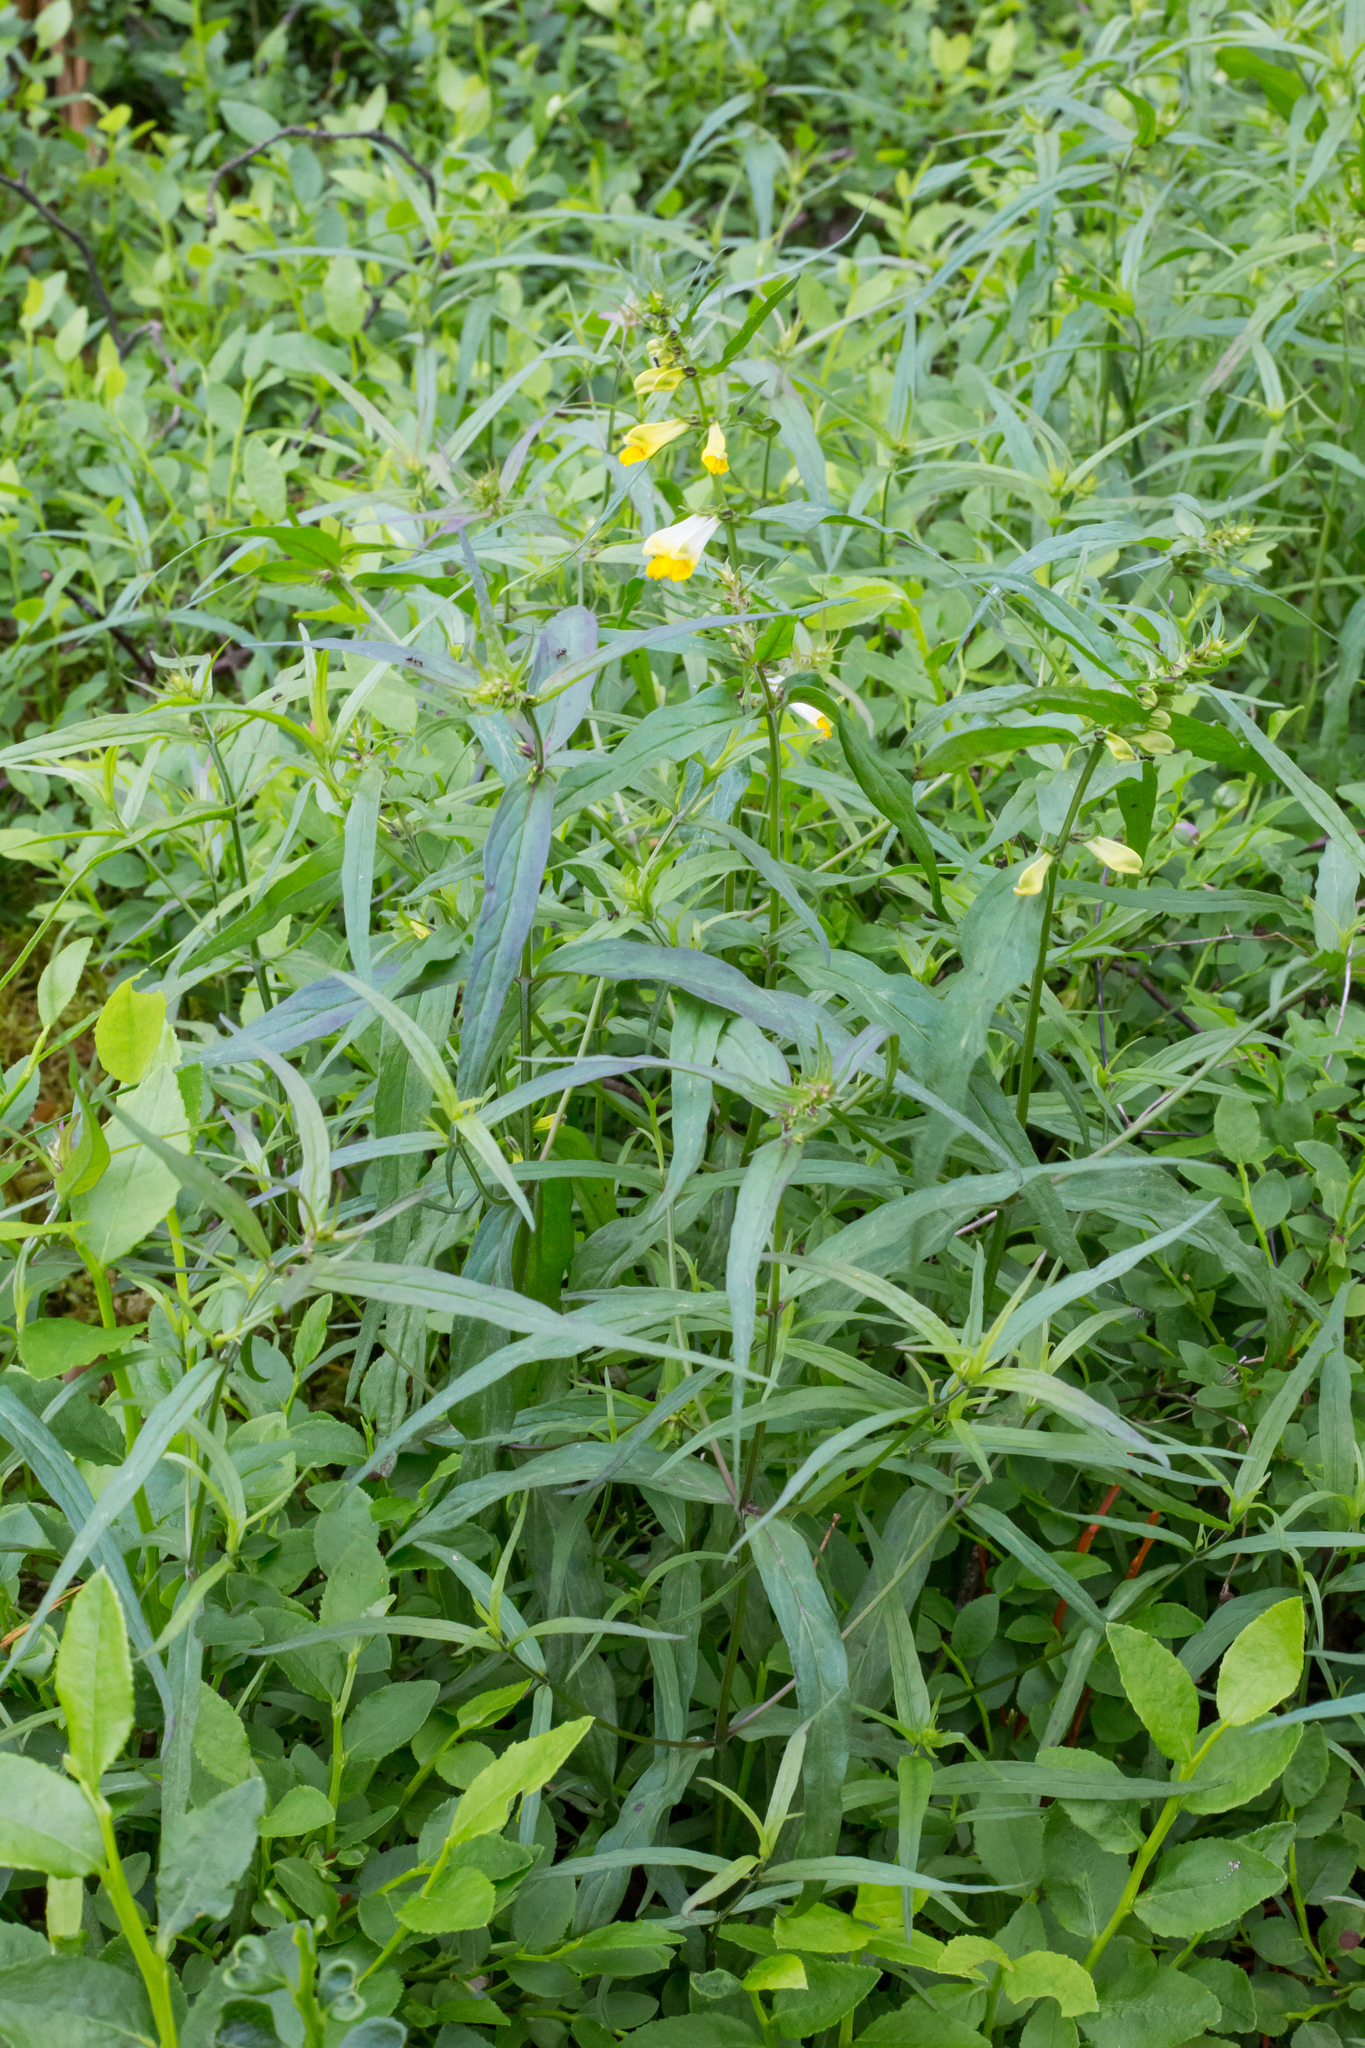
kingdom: Plantae
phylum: Tracheophyta
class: Magnoliopsida
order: Lamiales
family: Orobanchaceae
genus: Melampyrum
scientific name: Melampyrum pratense
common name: Common cow-wheat
